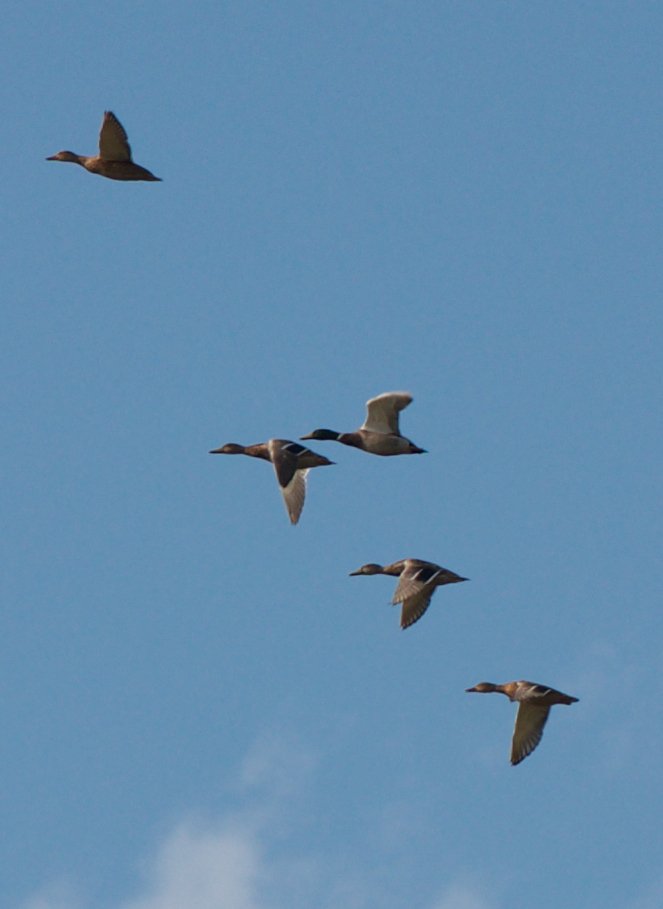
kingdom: Animalia
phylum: Chordata
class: Aves
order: Anseriformes
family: Anatidae
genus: Anas
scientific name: Anas platyrhynchos
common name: Mallard
